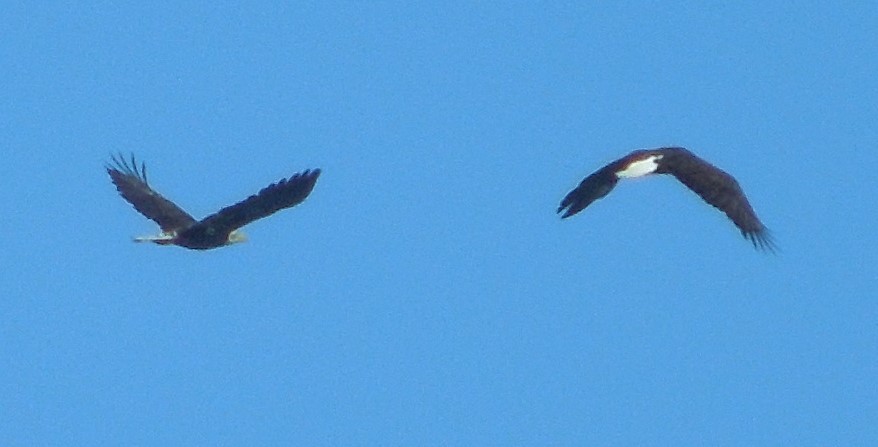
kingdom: Animalia
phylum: Chordata
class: Aves
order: Accipitriformes
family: Accipitridae
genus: Haliaeetus
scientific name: Haliaeetus leucocephalus
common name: Bald eagle
